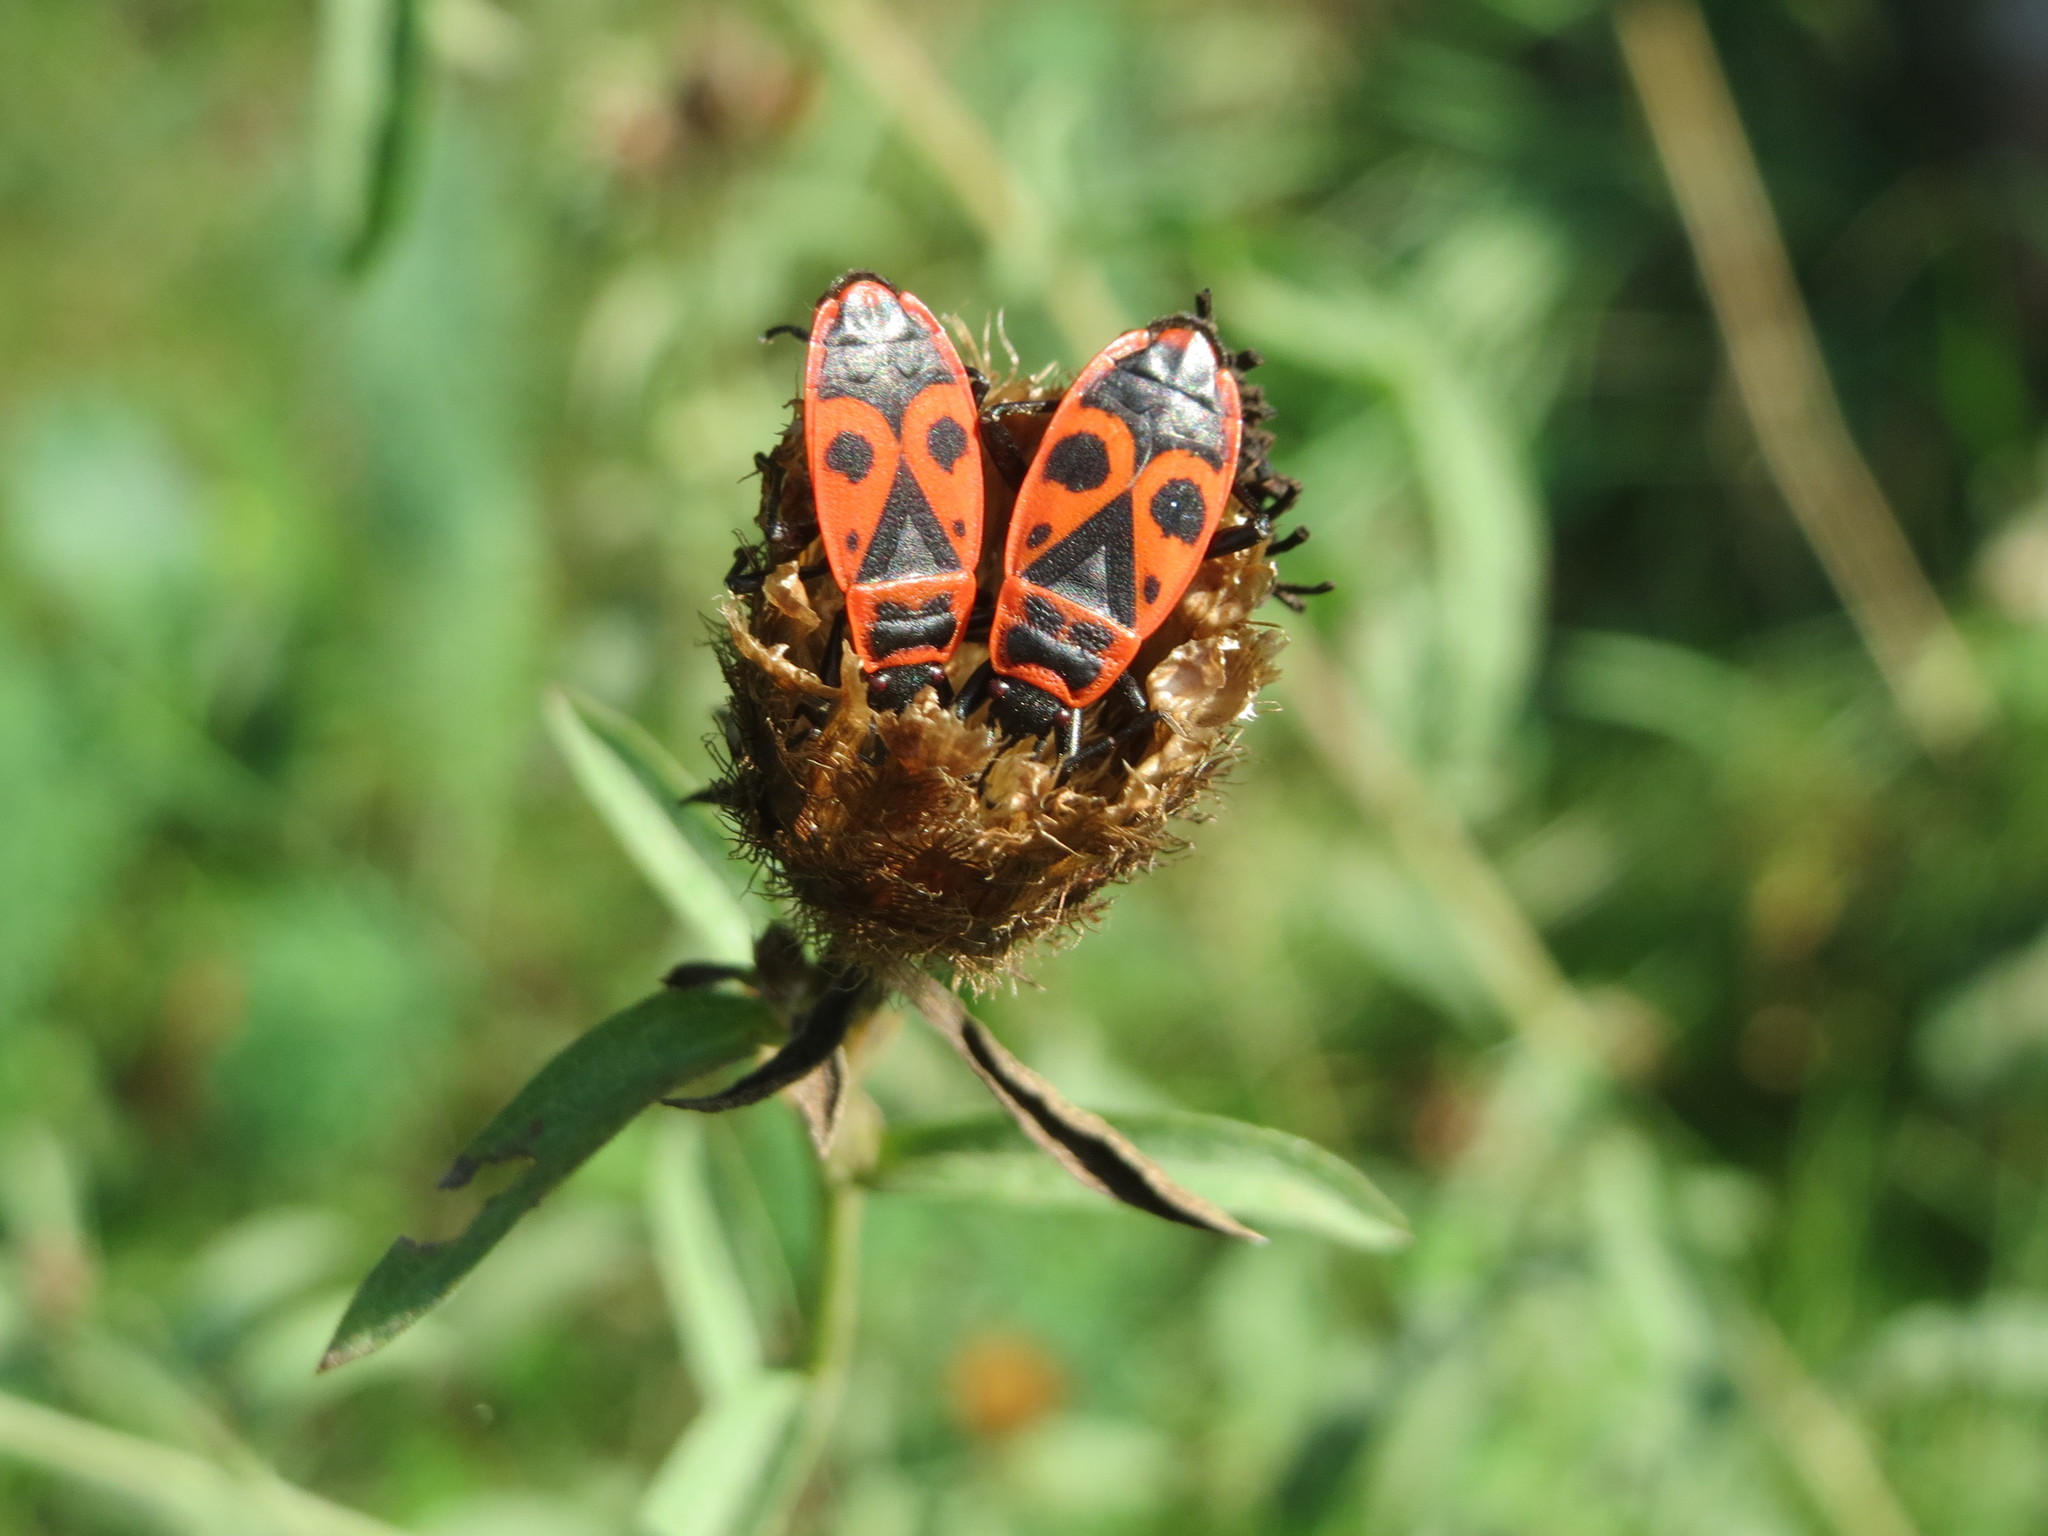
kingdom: Animalia
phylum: Arthropoda
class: Insecta
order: Hemiptera
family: Pyrrhocoridae
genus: Pyrrhocoris
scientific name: Pyrrhocoris apterus
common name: Firebug
